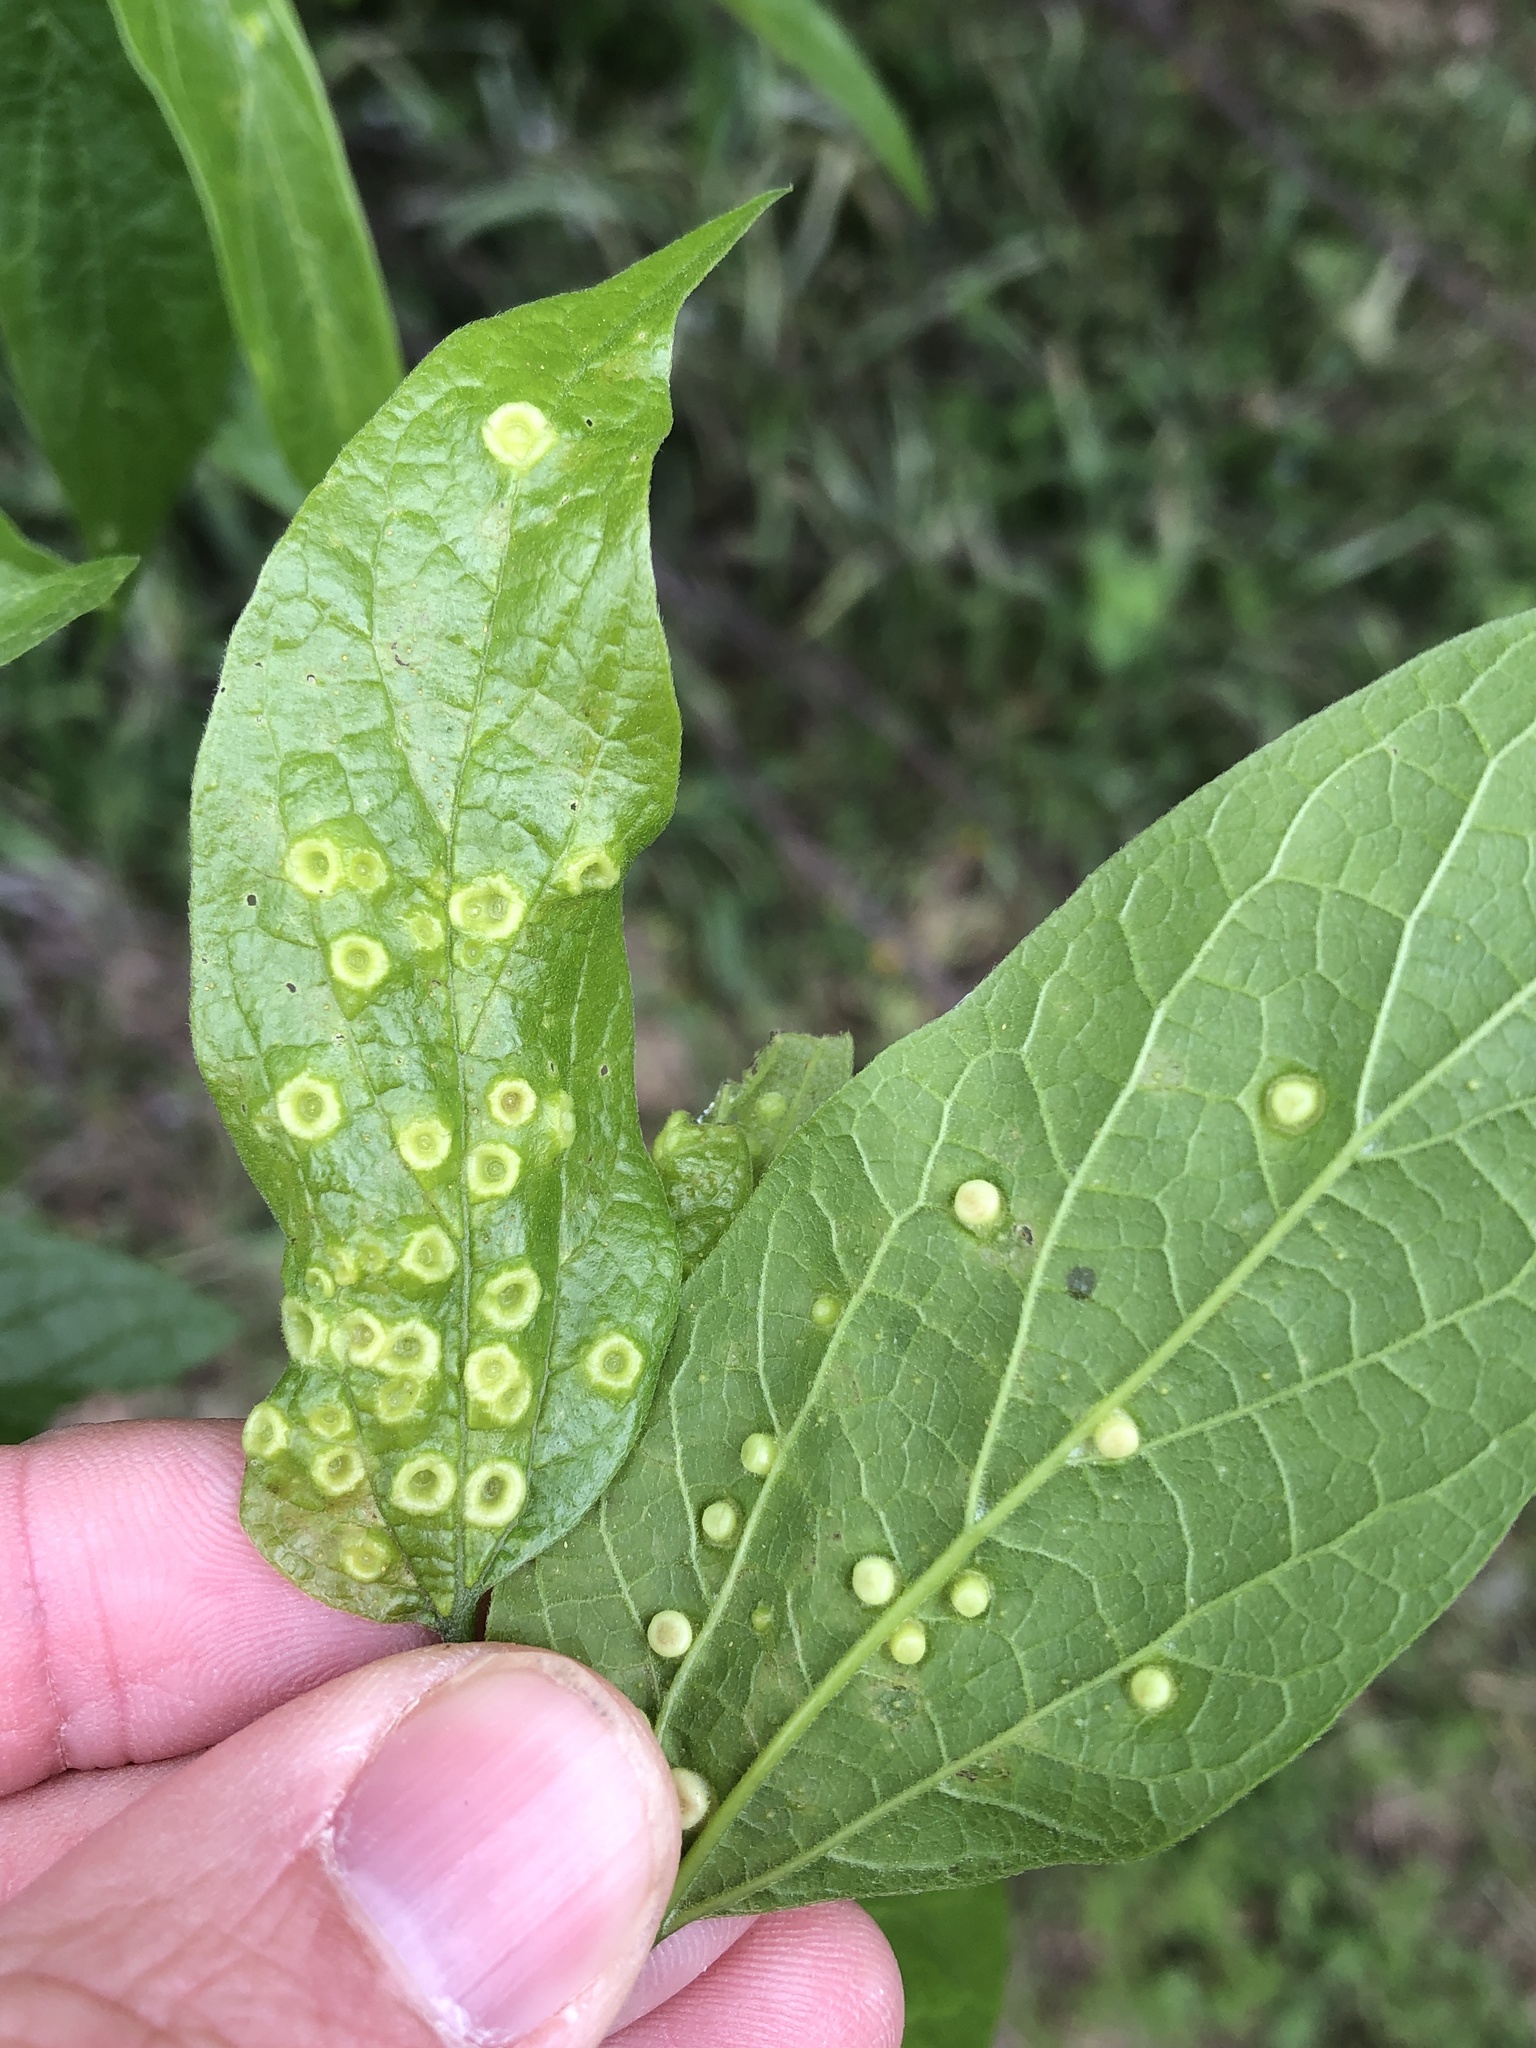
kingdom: Animalia
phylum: Arthropoda
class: Insecta
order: Hemiptera
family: Aphalaridae
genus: Pachypsylla
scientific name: Pachypsylla celtidismamma
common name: Hackberry nipplegall psyllid
